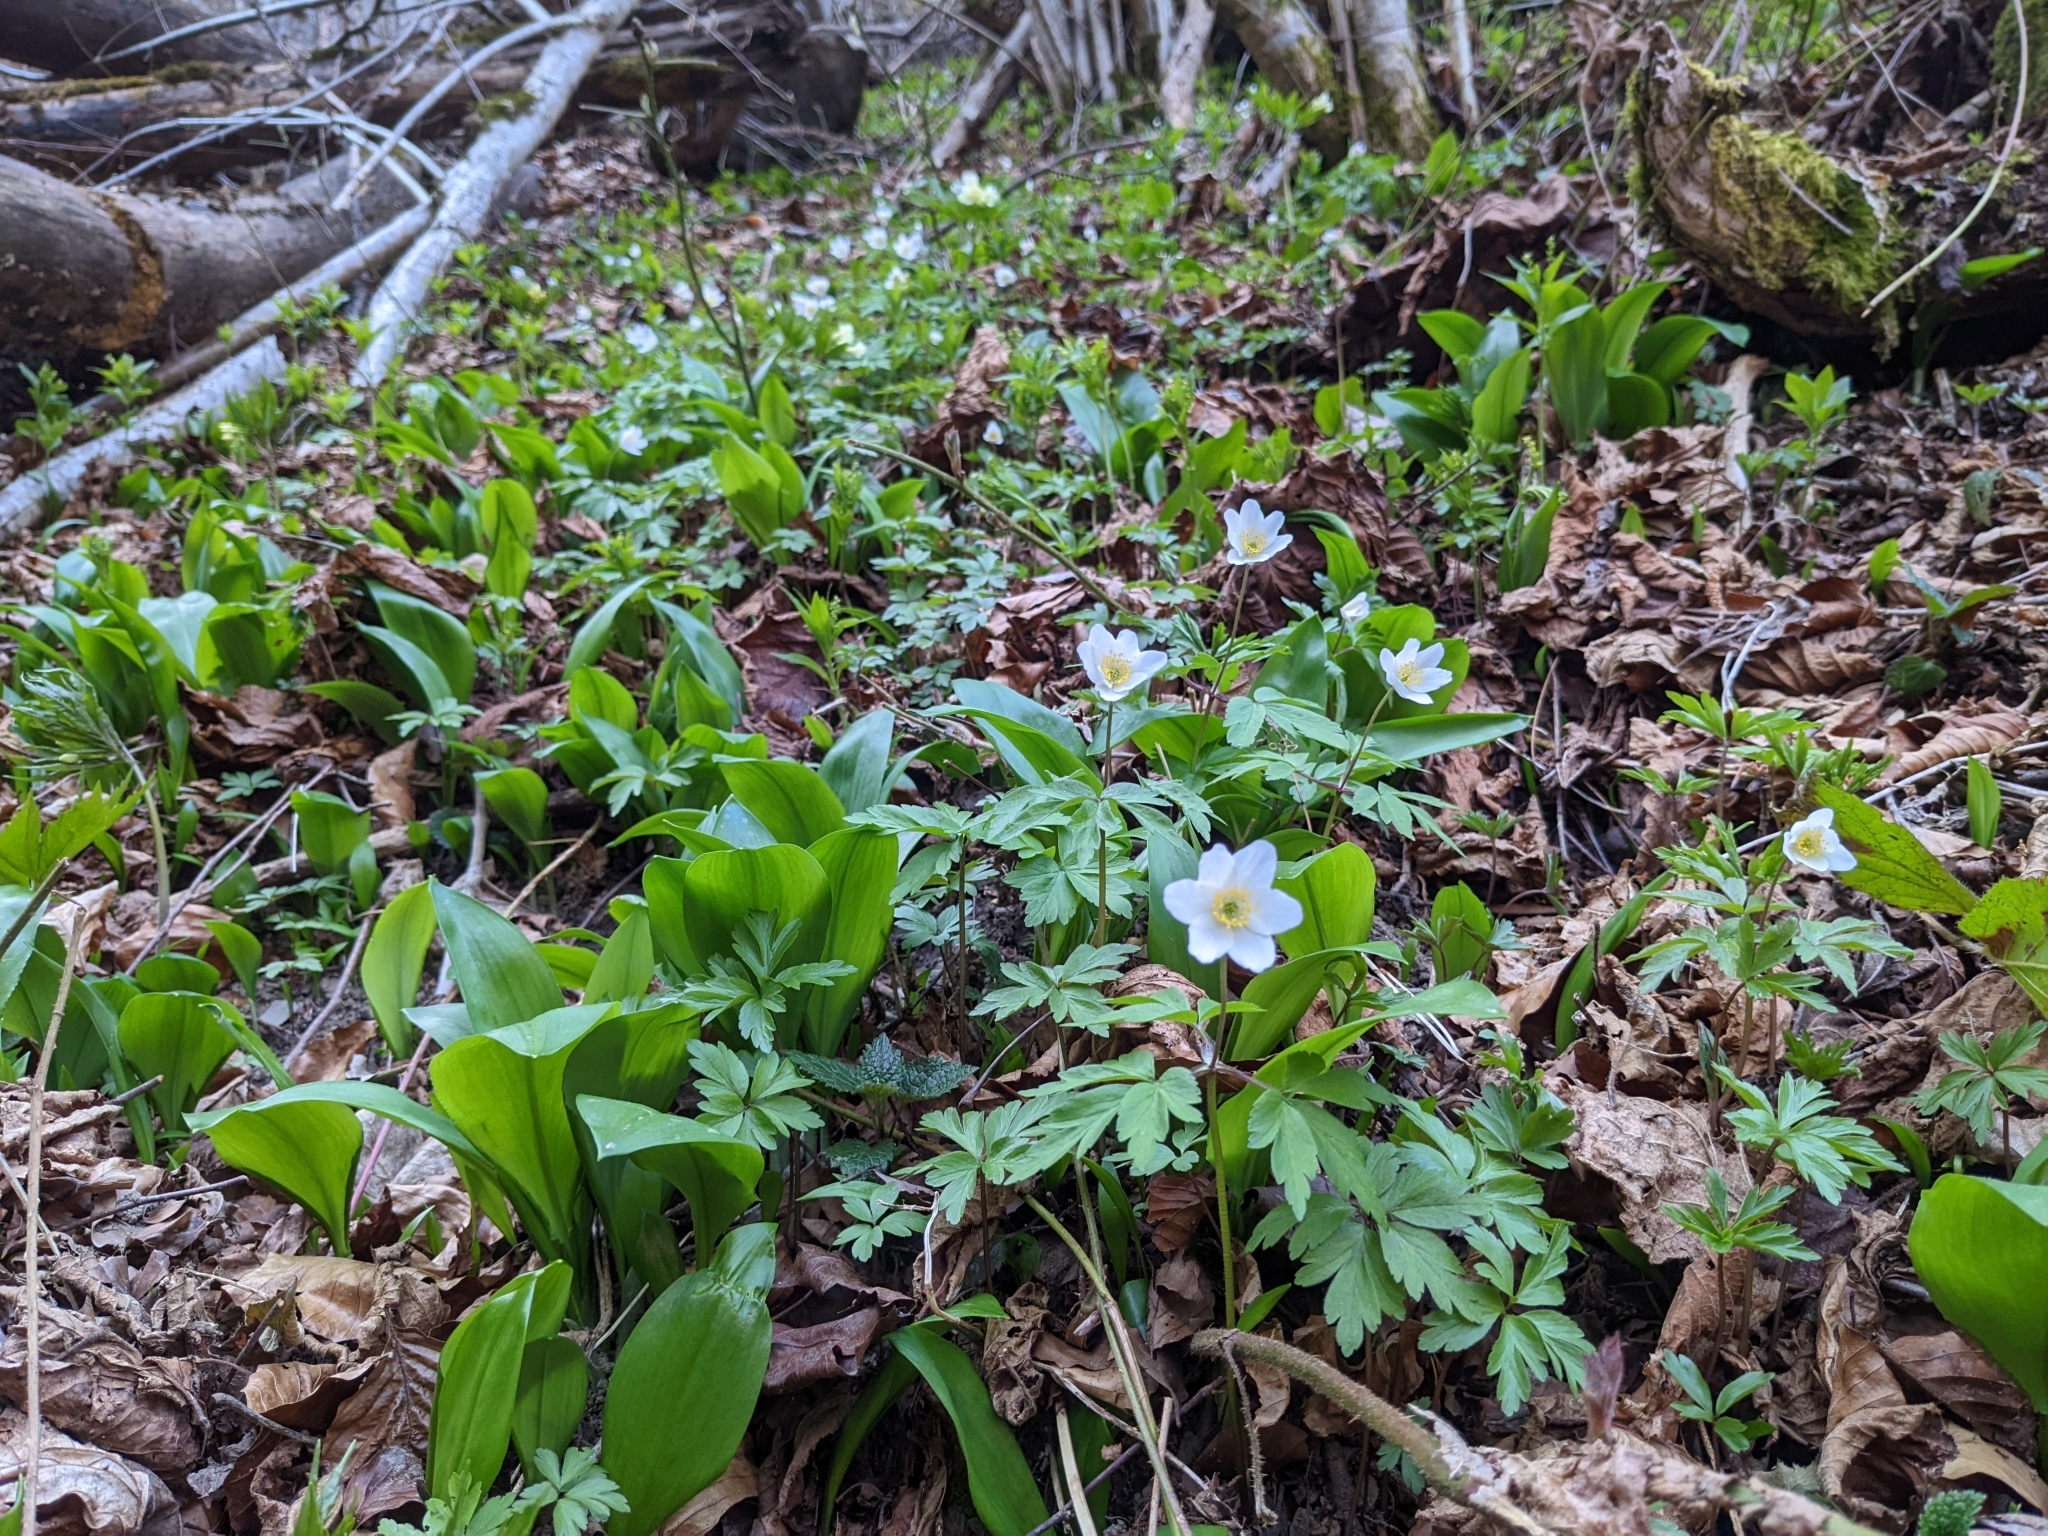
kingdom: Plantae
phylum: Tracheophyta
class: Magnoliopsida
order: Ranunculales
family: Ranunculaceae
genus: Anemone
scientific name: Anemone nemorosa
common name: Wood anemone
